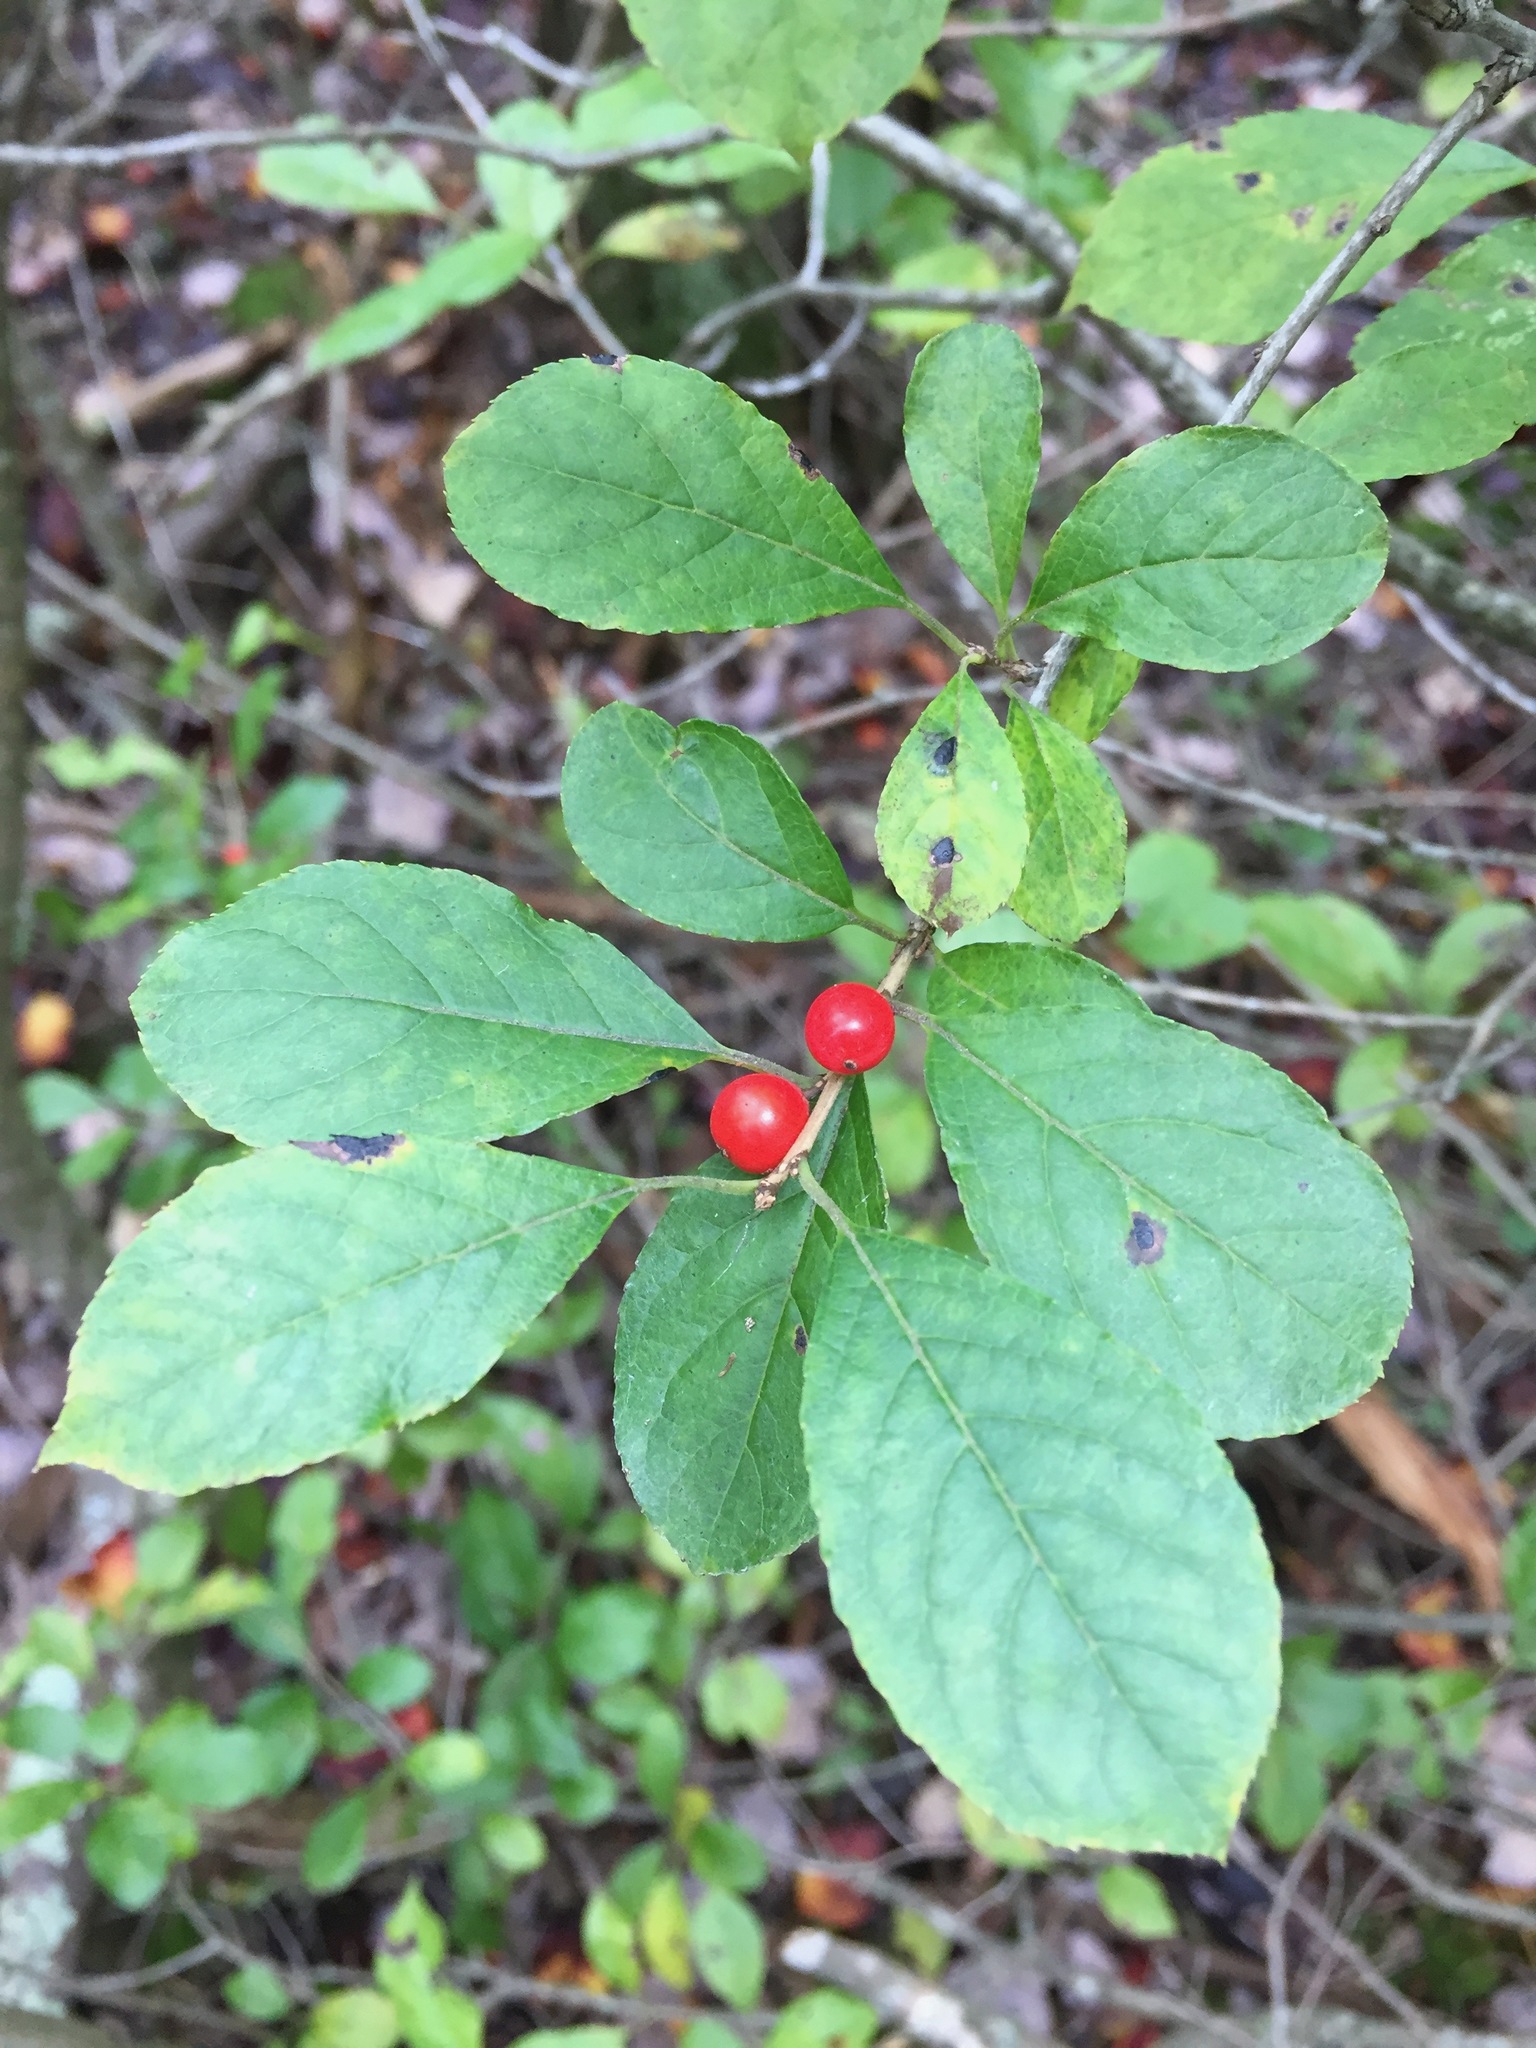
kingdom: Plantae
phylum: Tracheophyta
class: Magnoliopsida
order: Aquifoliales
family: Aquifoliaceae
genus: Ilex
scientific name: Ilex verticillata
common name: Virginia winterberry
